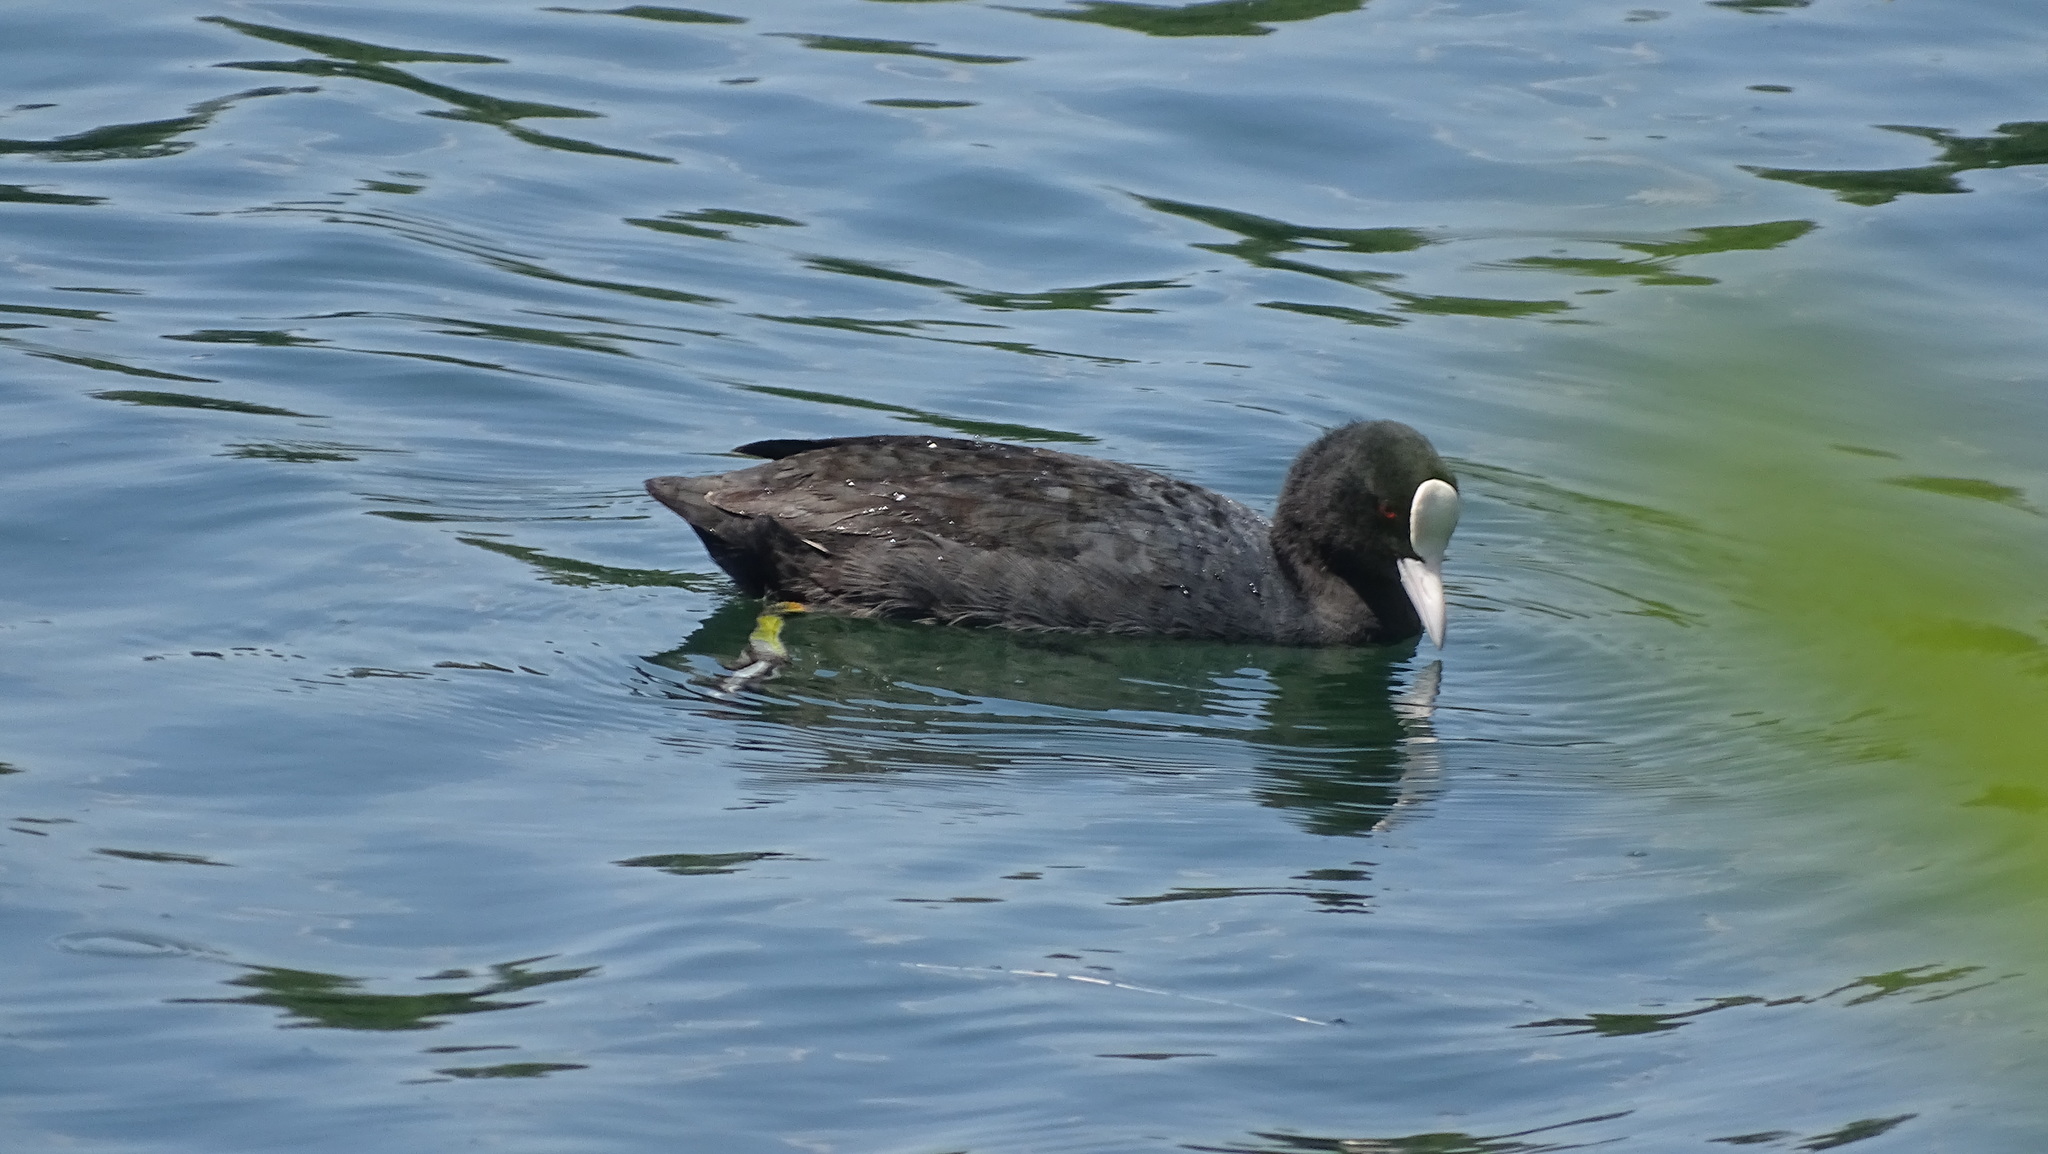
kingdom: Animalia
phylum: Chordata
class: Aves
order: Gruiformes
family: Rallidae
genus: Fulica
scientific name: Fulica atra
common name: Eurasian coot
